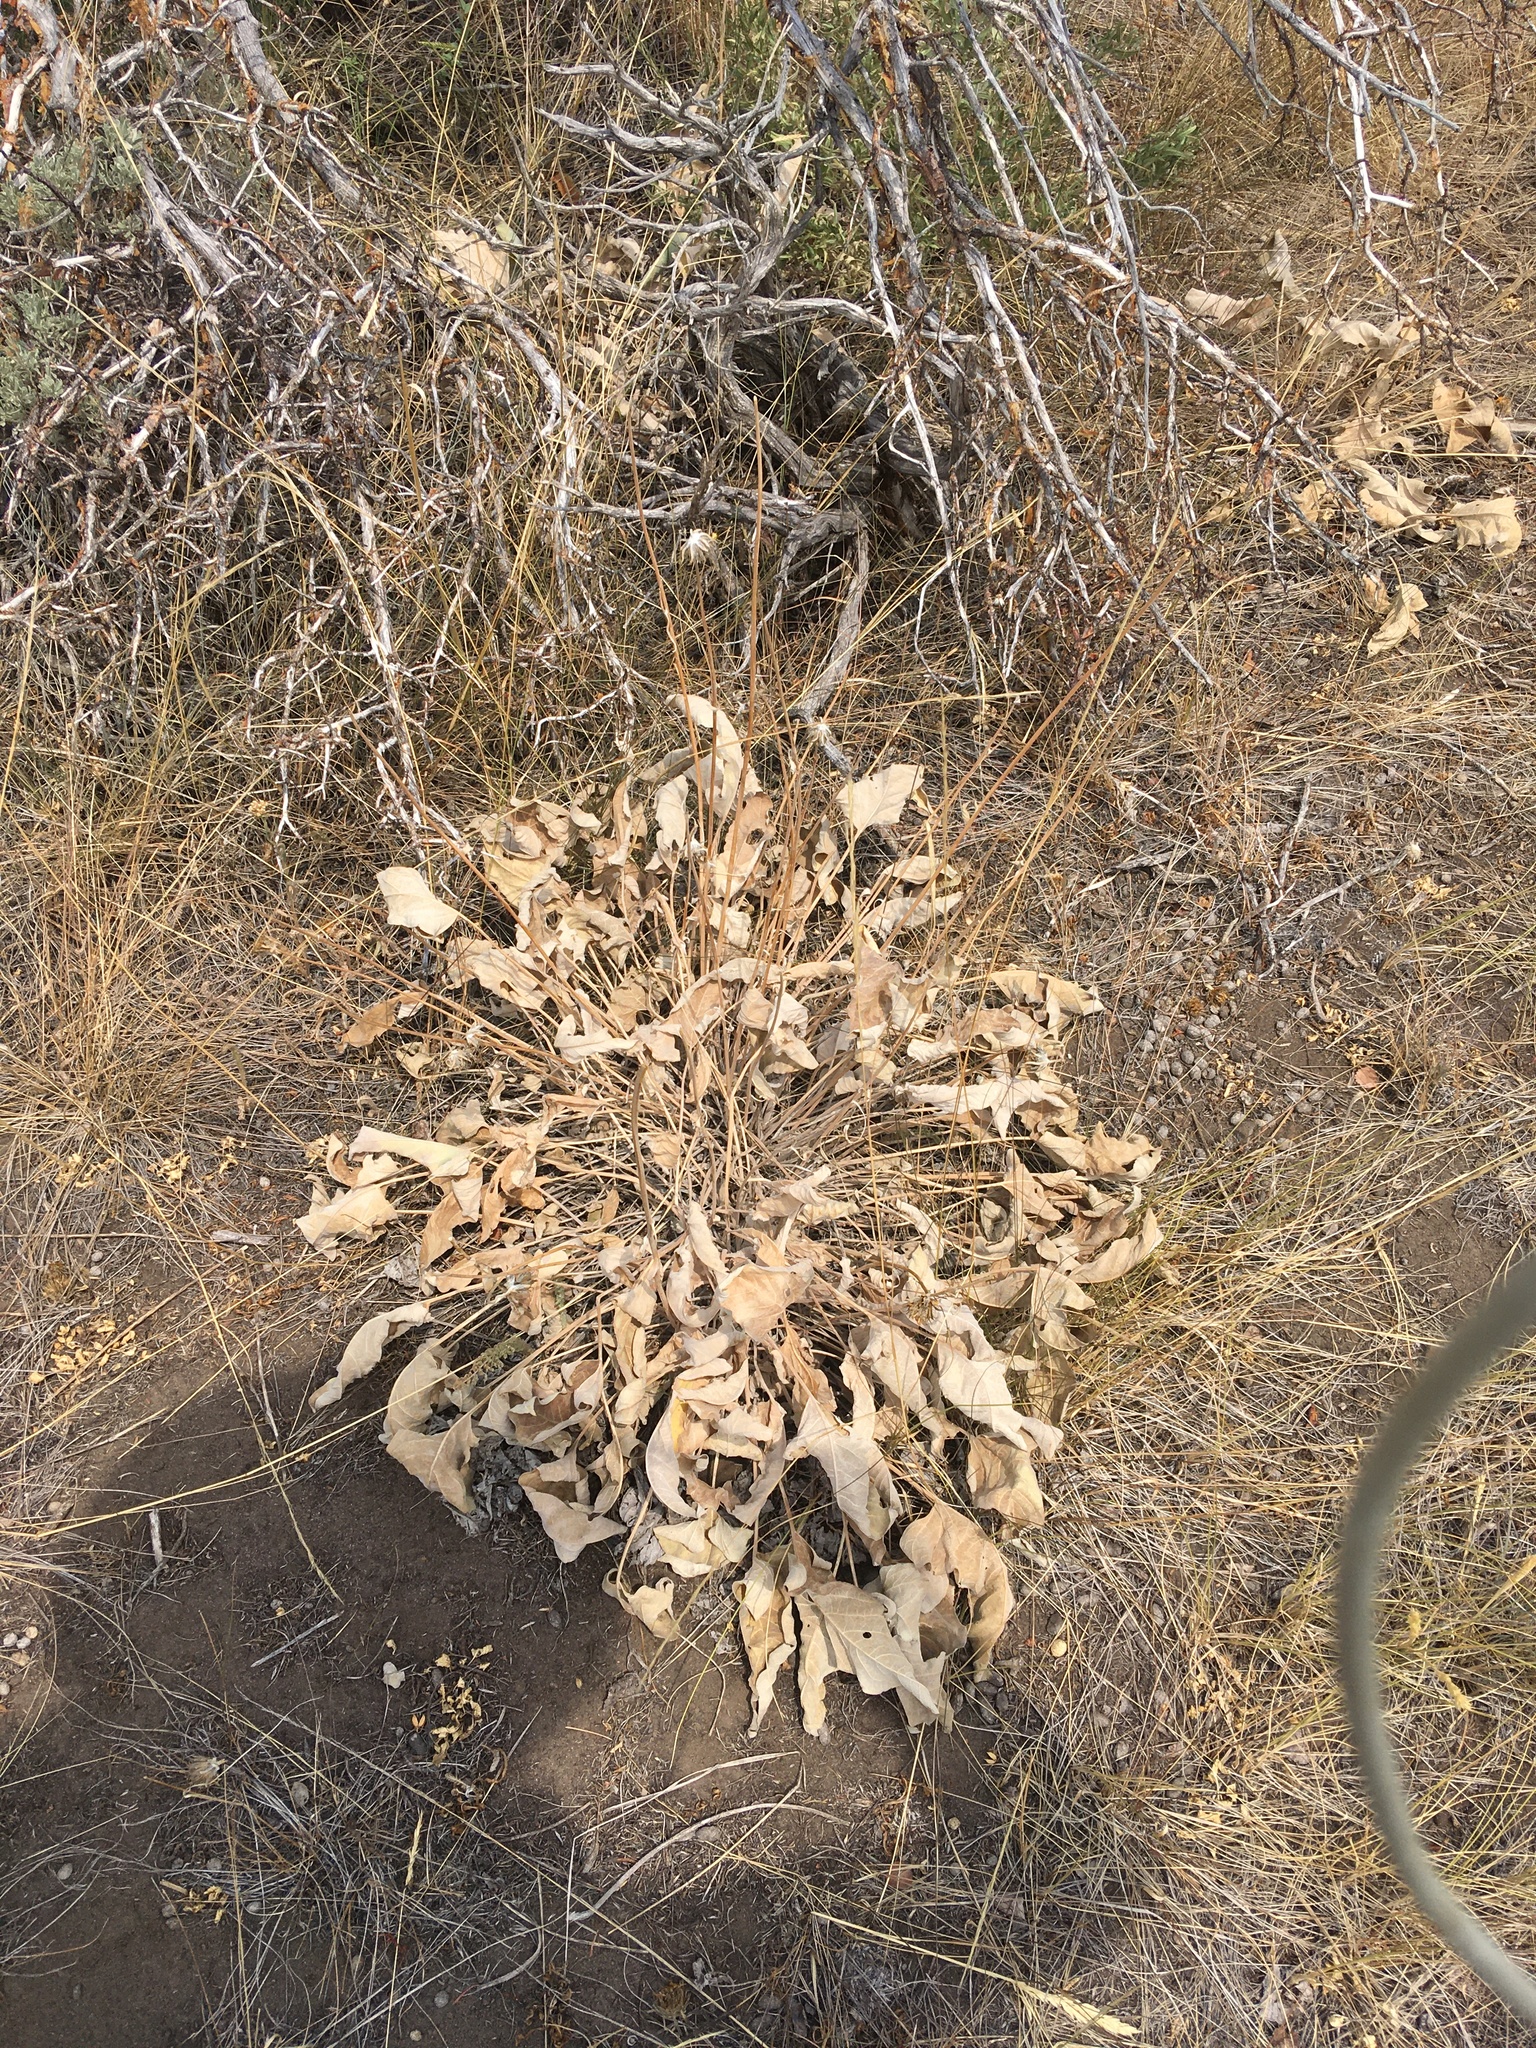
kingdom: Plantae
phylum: Tracheophyta
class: Magnoliopsida
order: Asterales
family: Asteraceae
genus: Wyethia
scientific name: Wyethia sagittata
